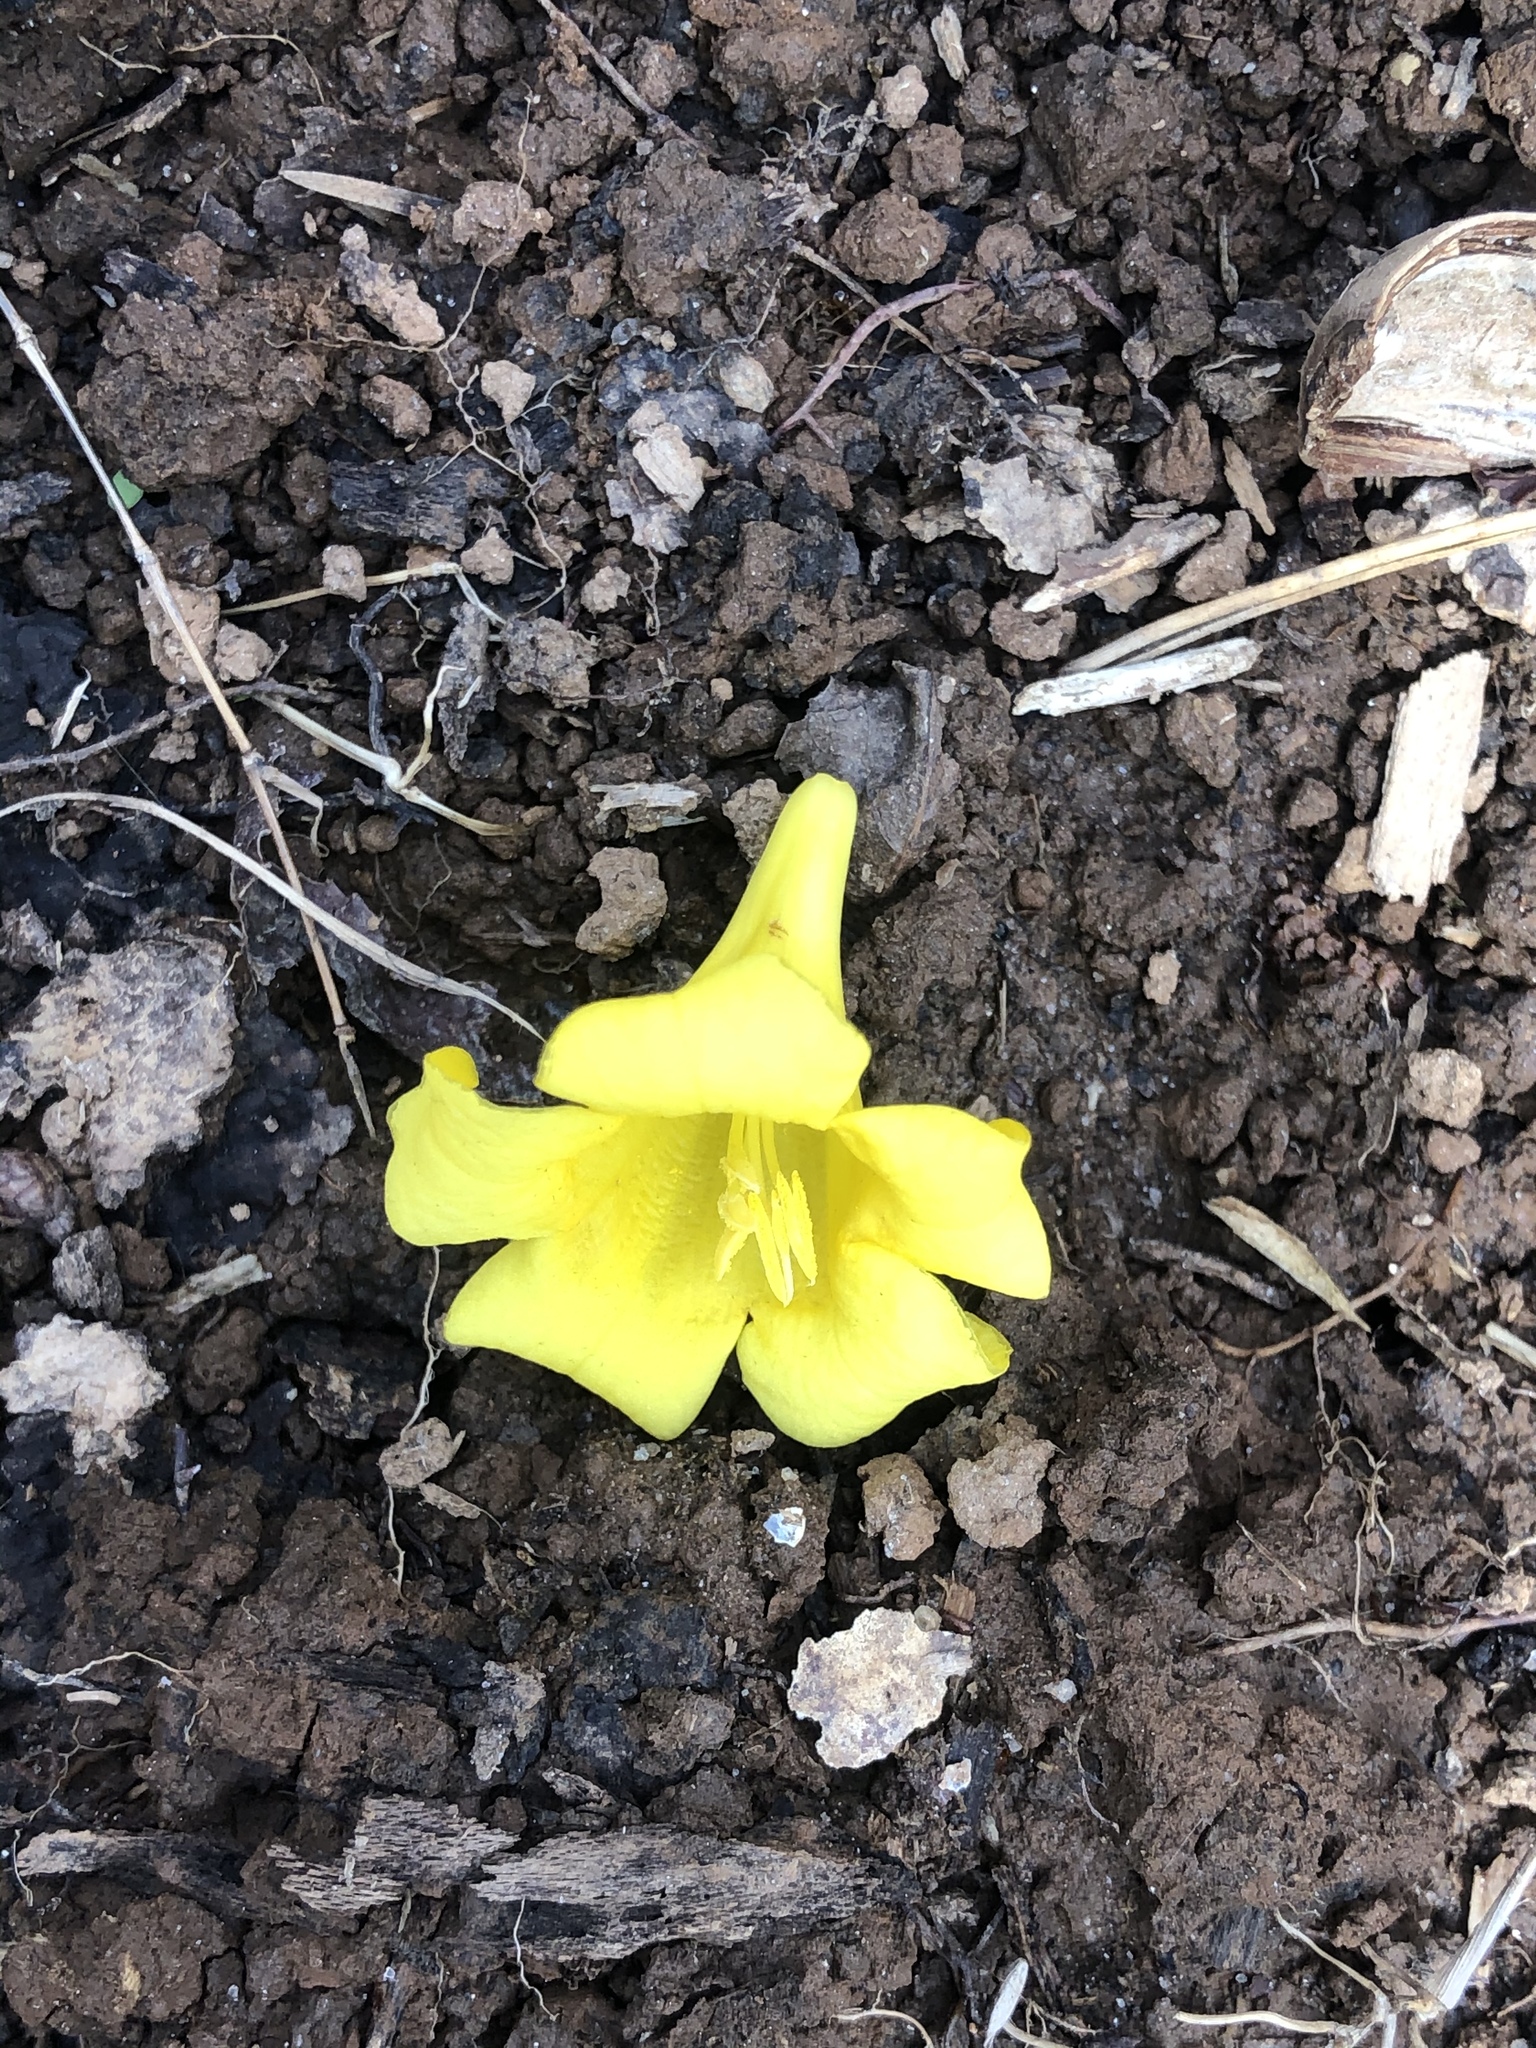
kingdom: Plantae
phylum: Tracheophyta
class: Magnoliopsida
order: Gentianales
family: Gelsemiaceae
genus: Gelsemium
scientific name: Gelsemium sempervirens
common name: Carolina-jasmine
